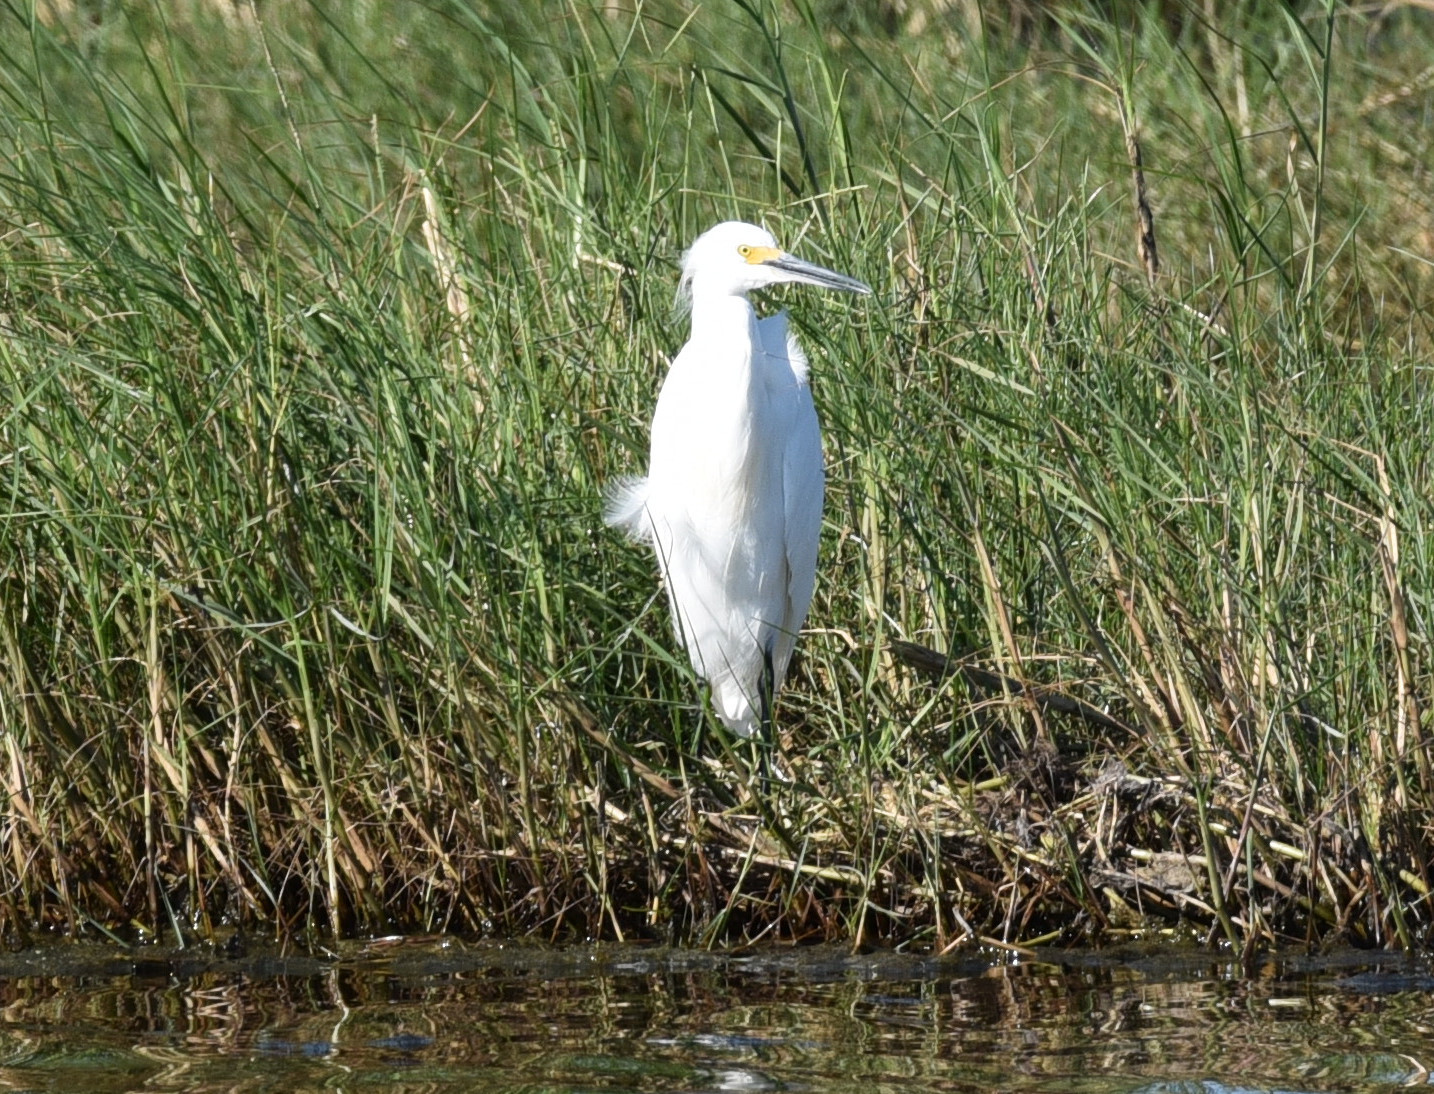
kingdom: Animalia
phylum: Chordata
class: Aves
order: Pelecaniformes
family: Ardeidae
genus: Egretta
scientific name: Egretta thula
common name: Snowy egret
